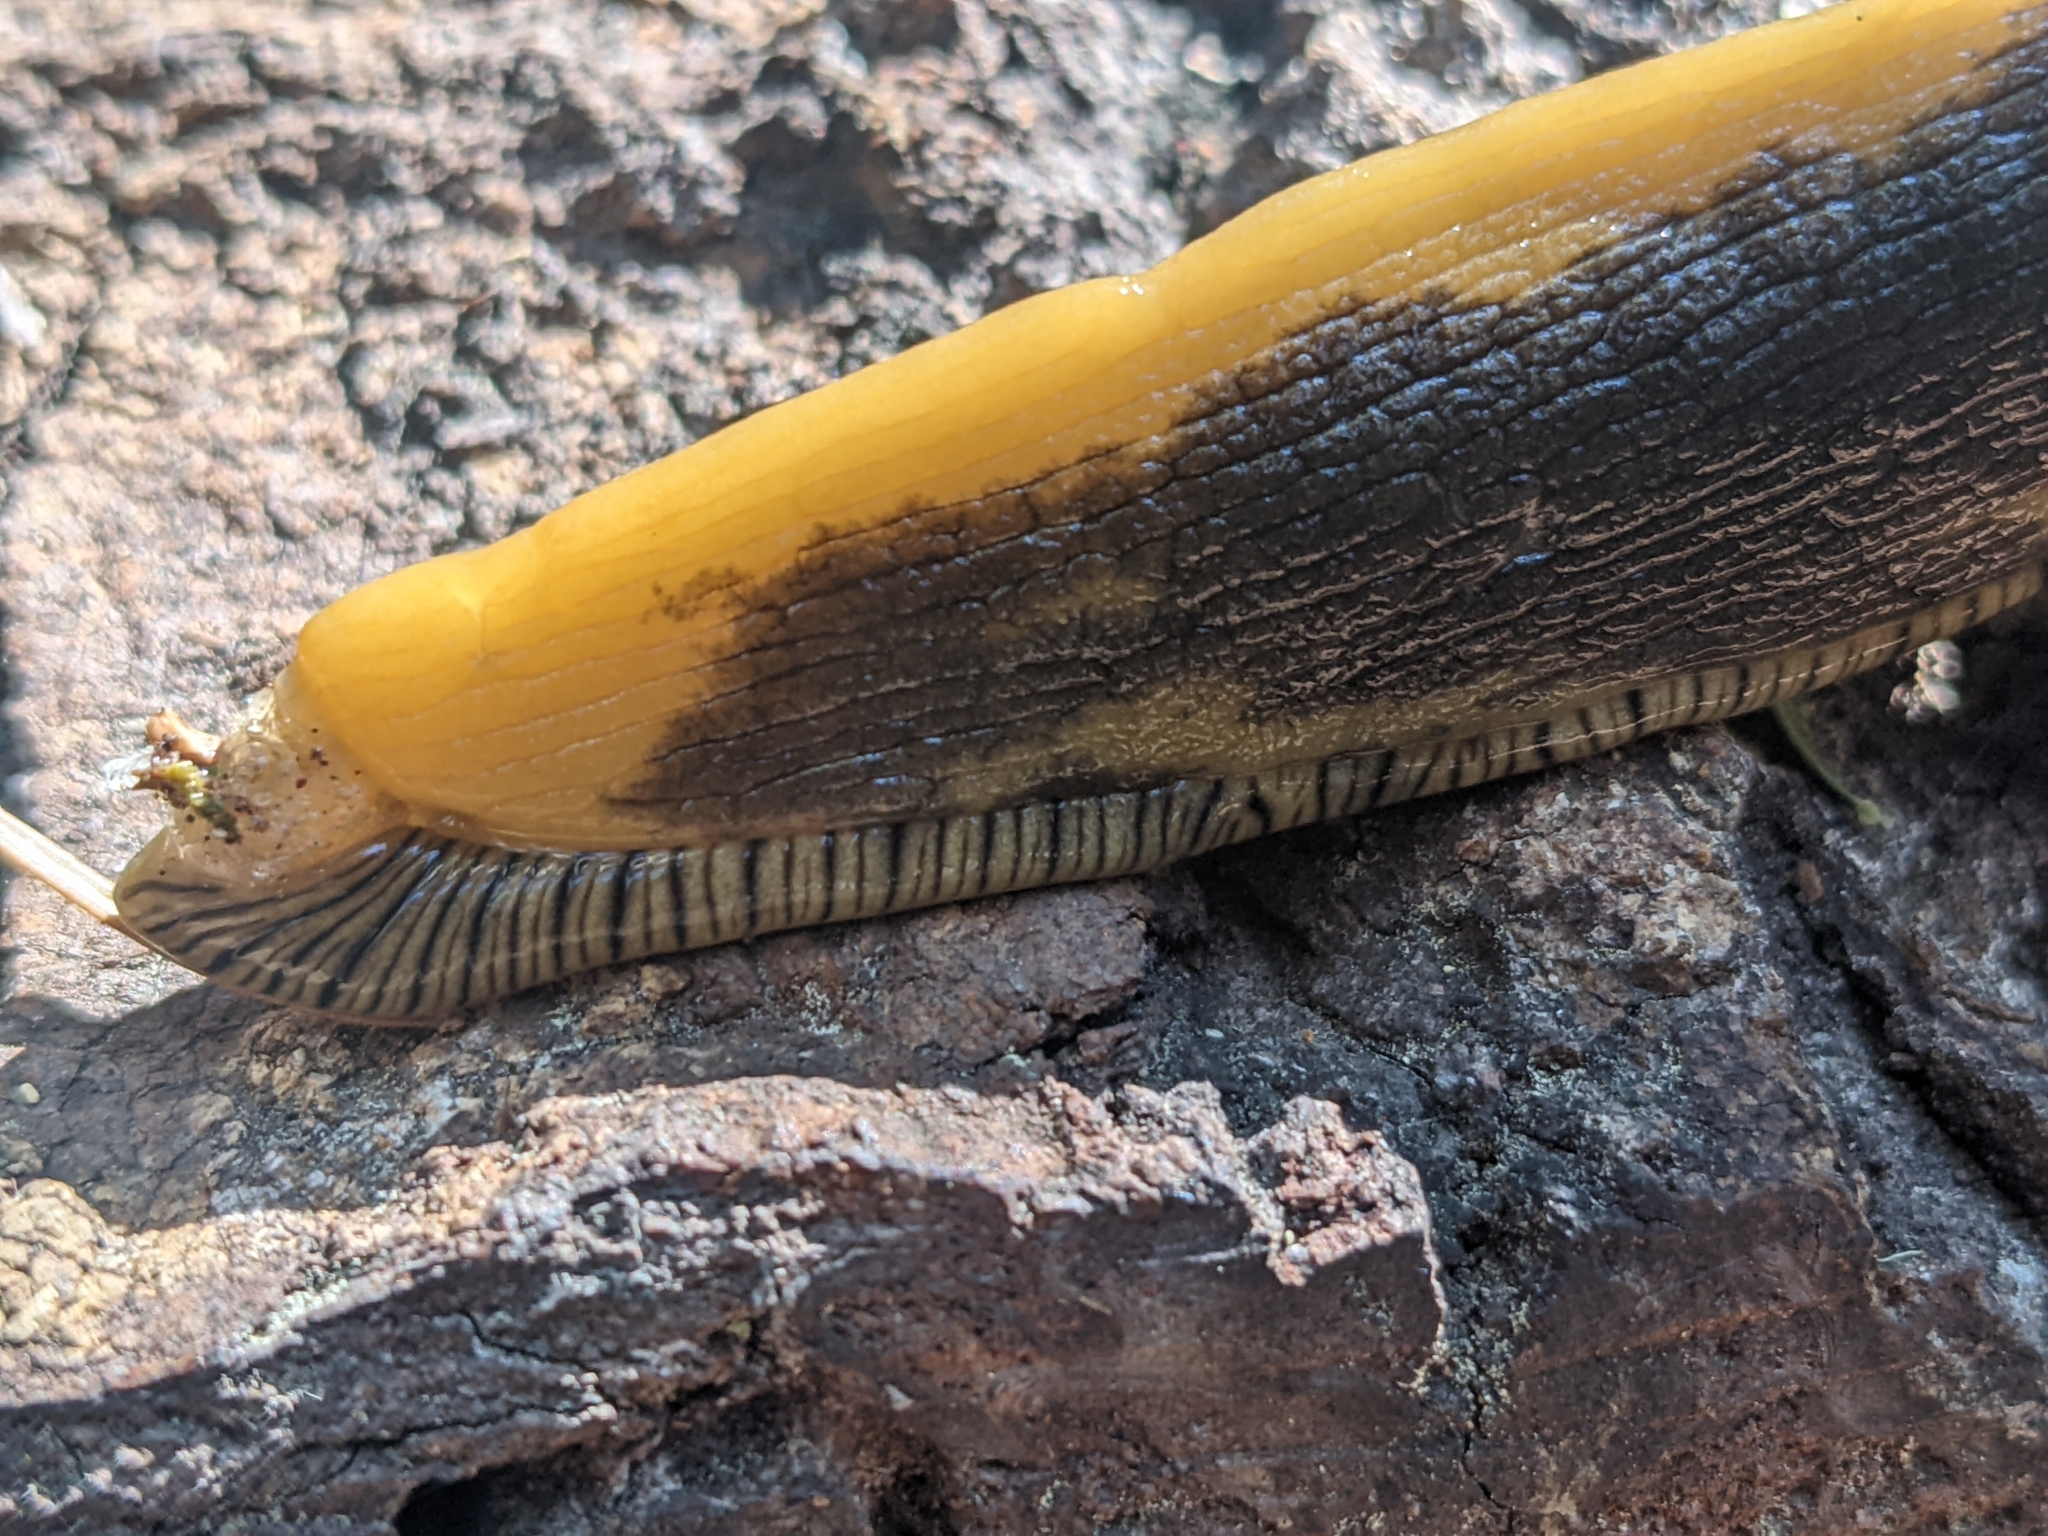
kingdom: Animalia
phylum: Mollusca
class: Gastropoda
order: Stylommatophora
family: Ariolimacidae
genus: Ariolimax
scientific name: Ariolimax buttoni
